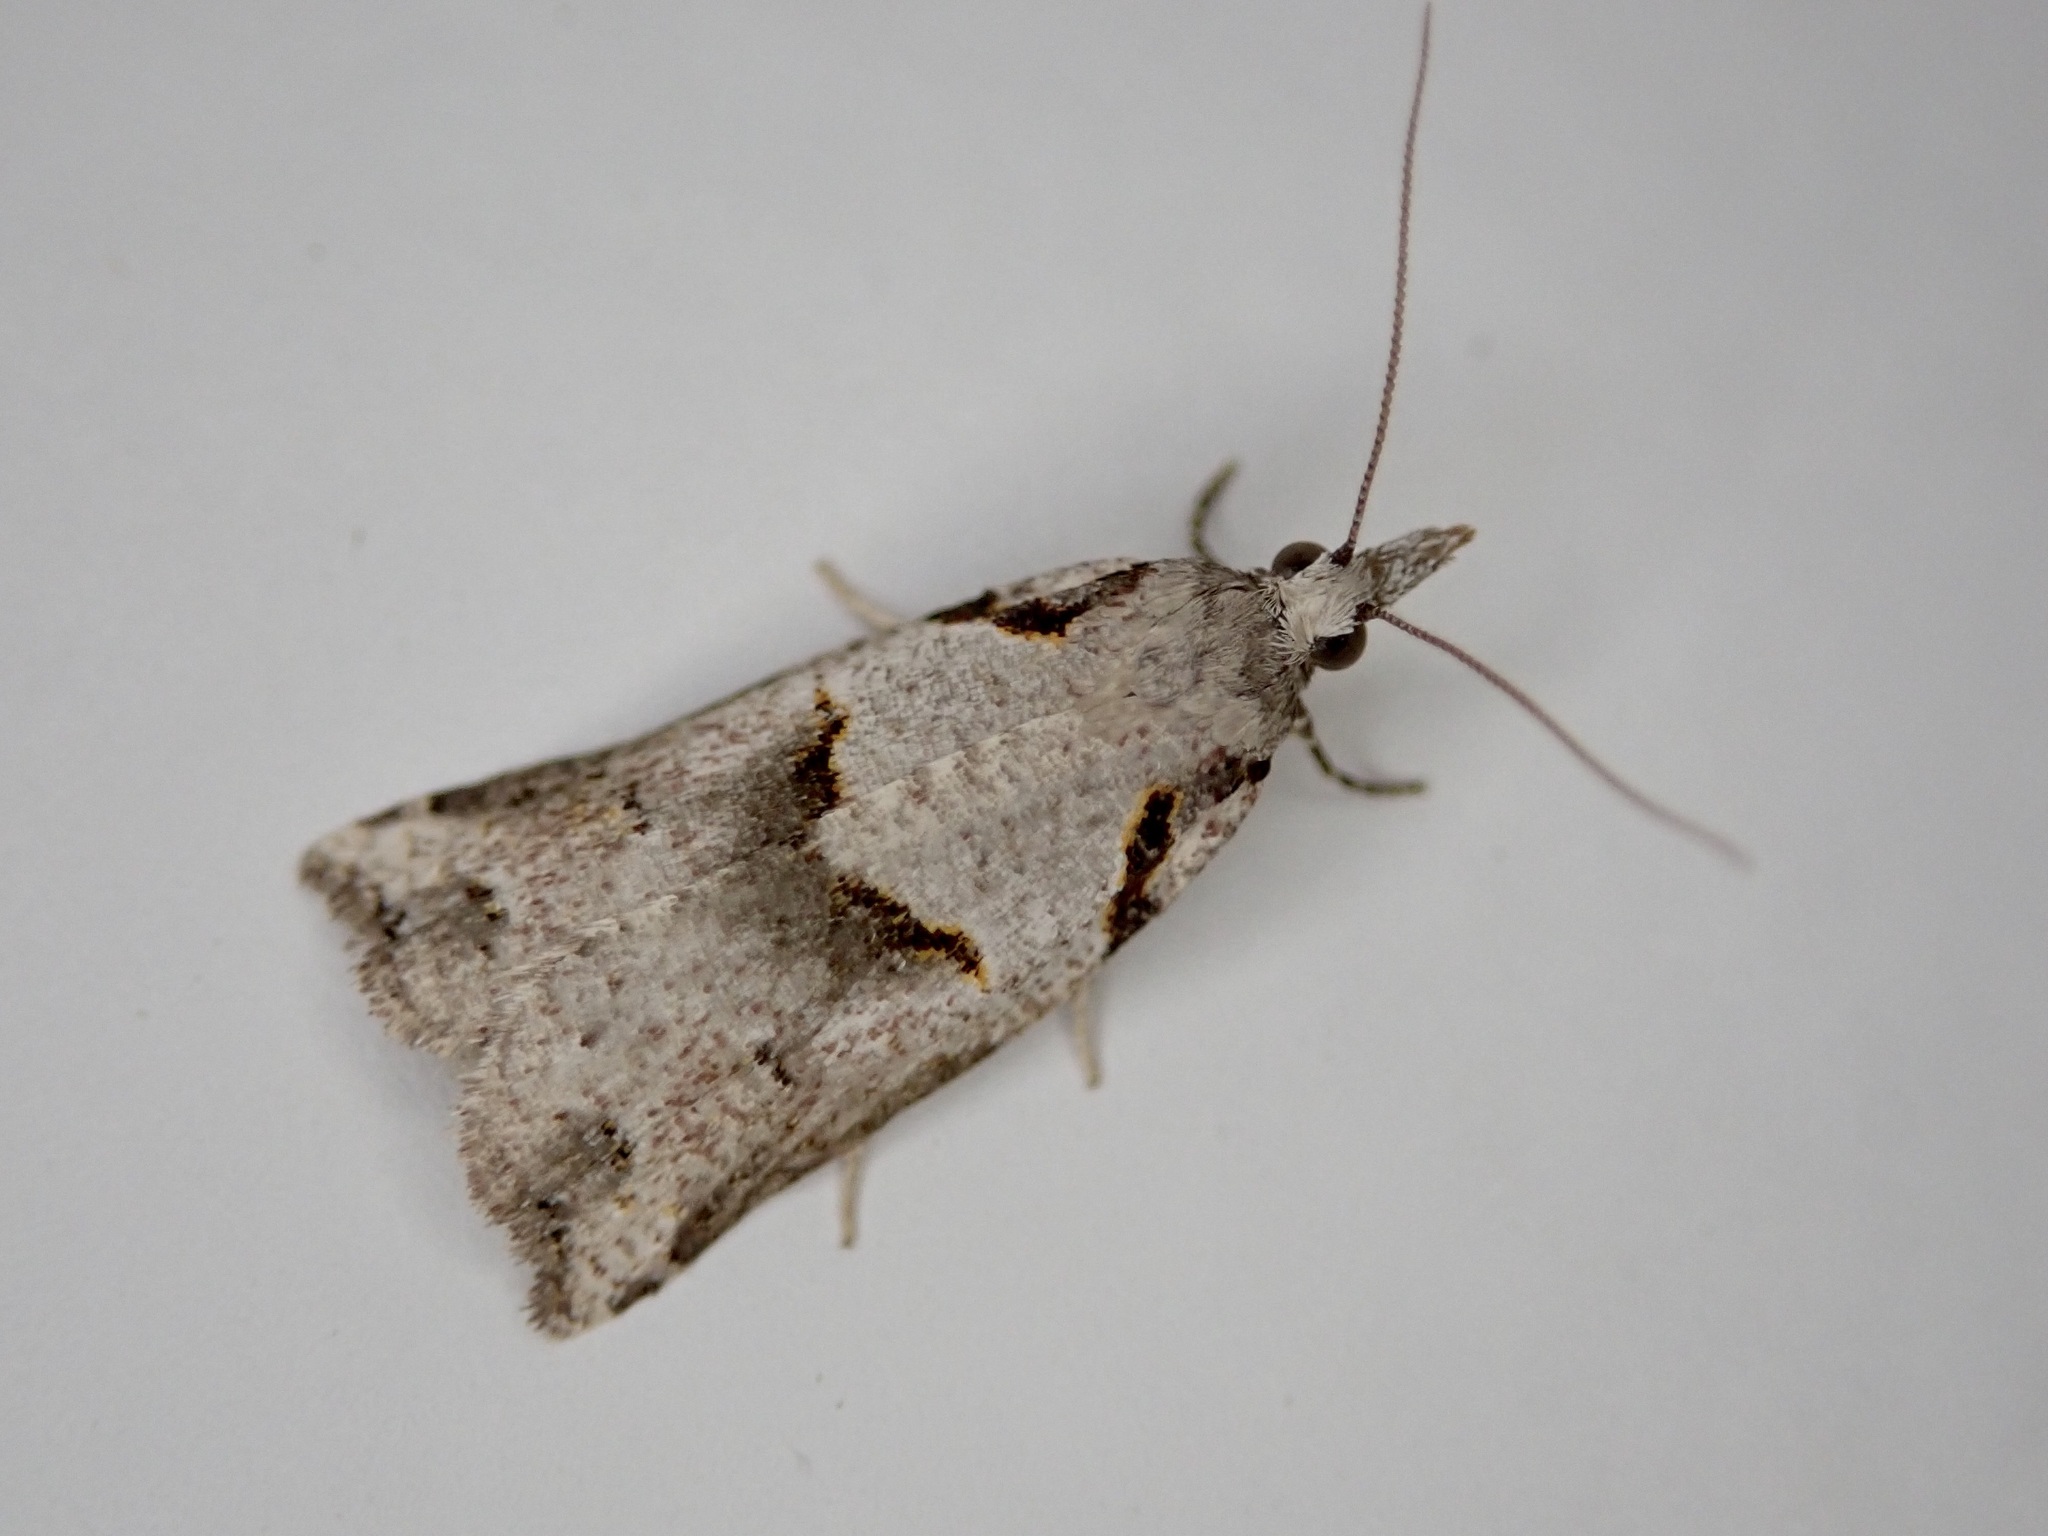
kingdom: Animalia
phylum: Arthropoda
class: Insecta
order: Lepidoptera
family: Tortricidae
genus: Harmologa
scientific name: Harmologa amplexana
